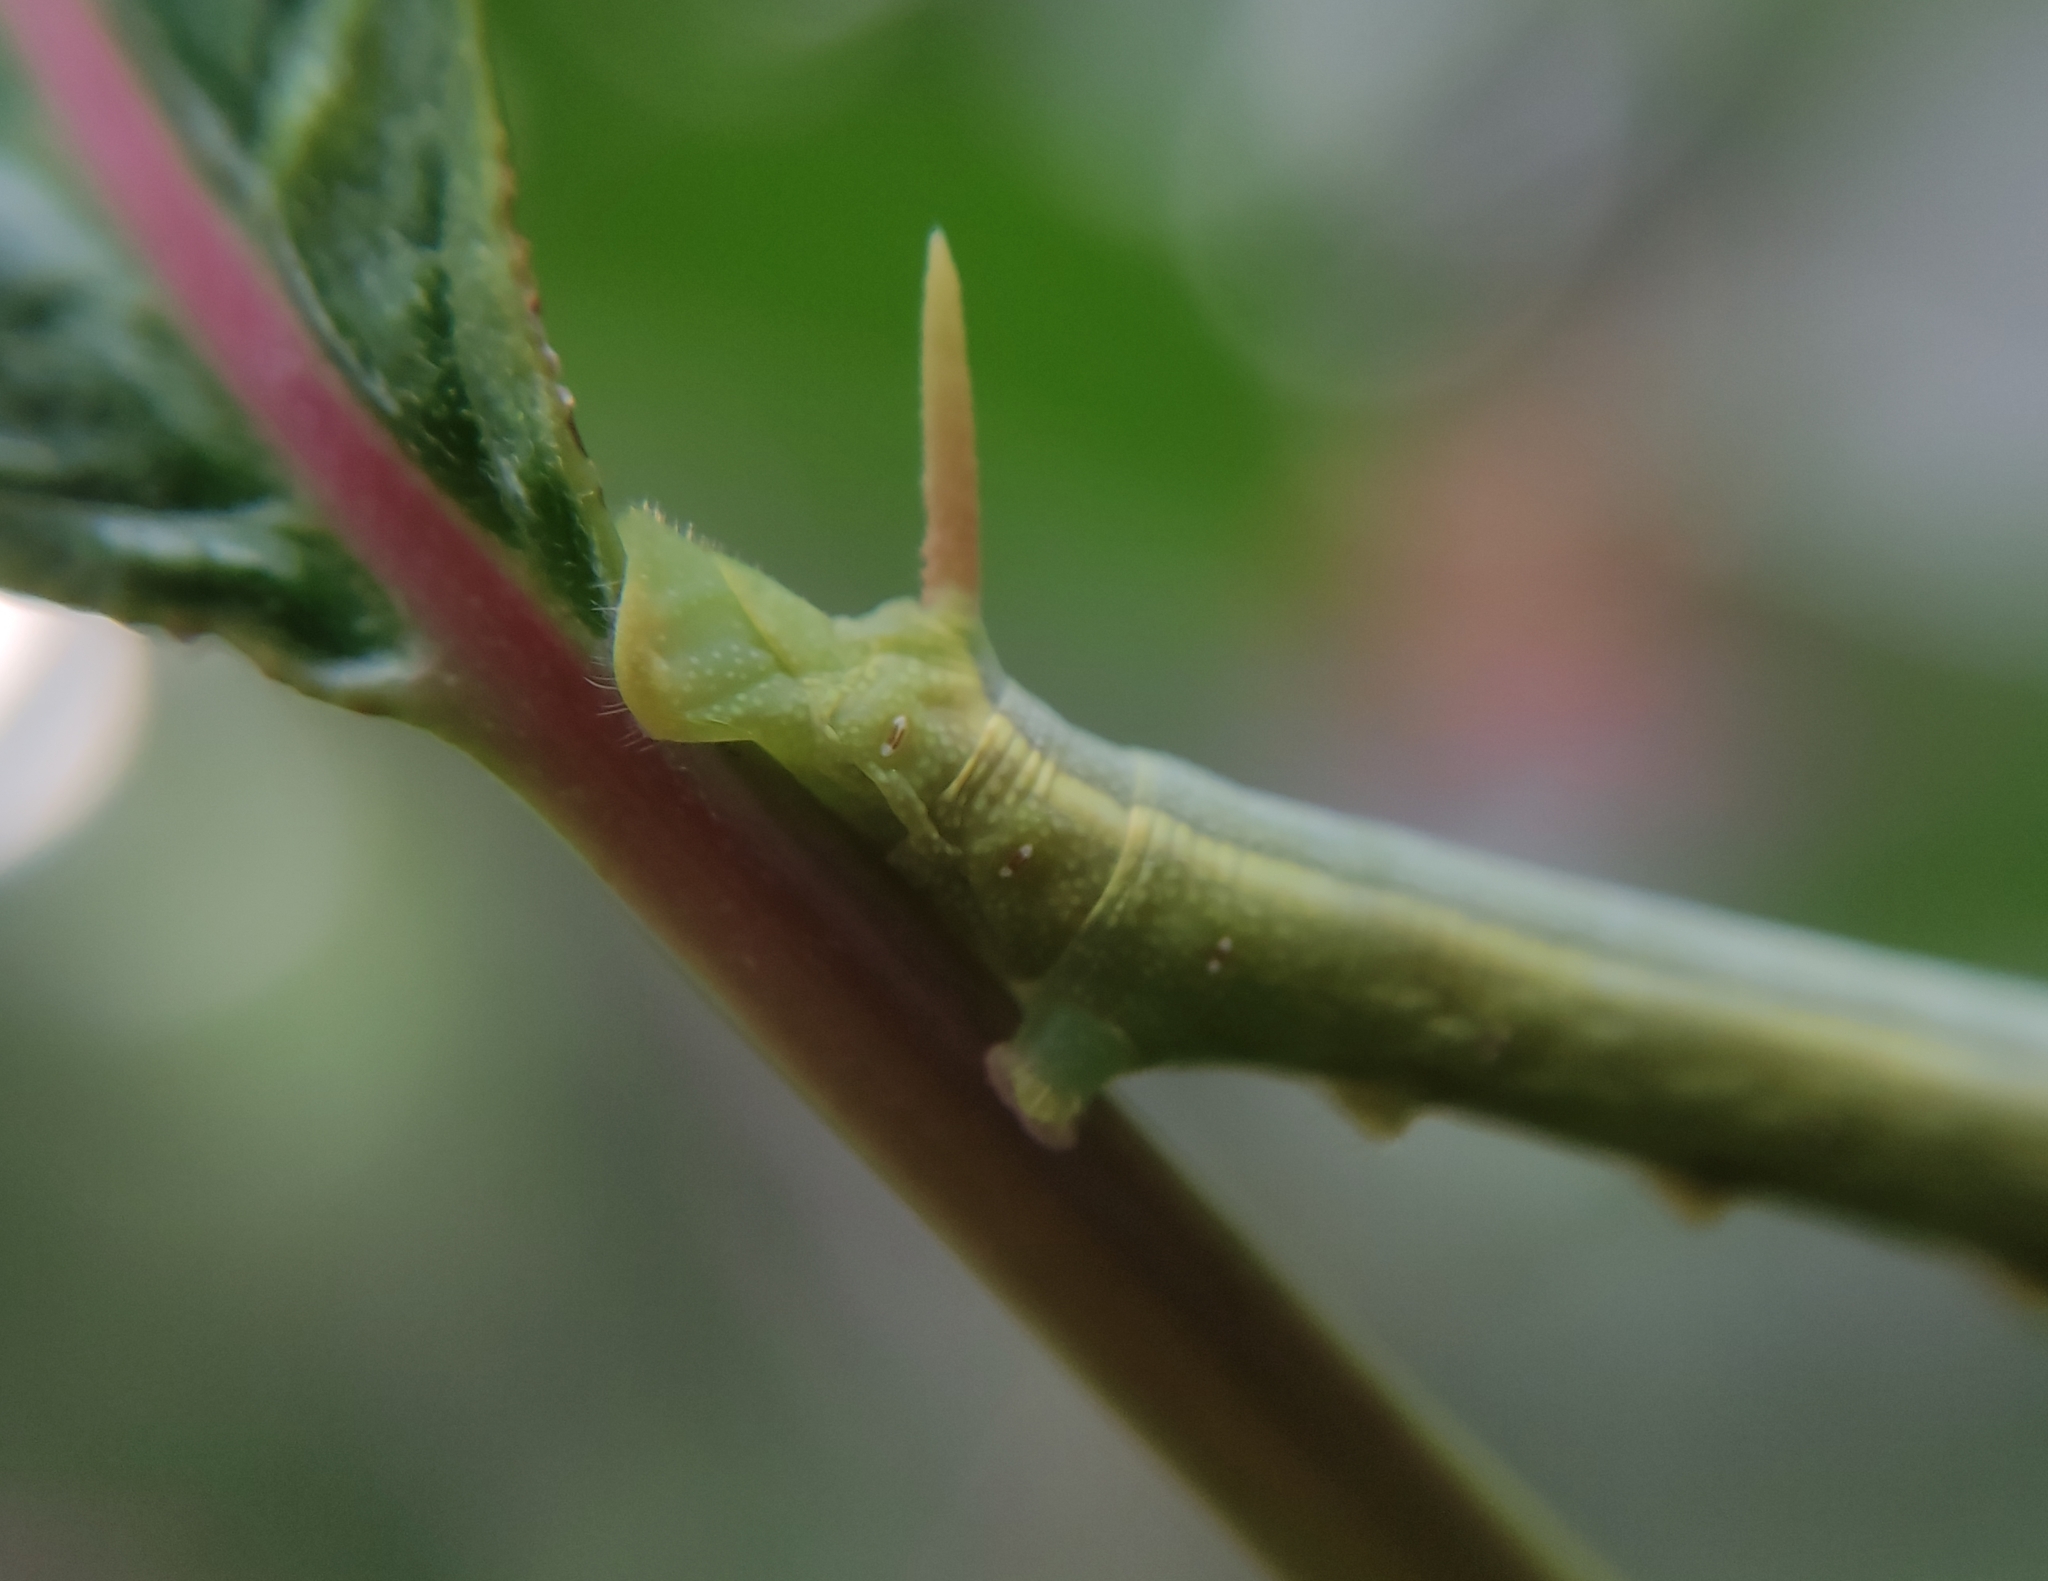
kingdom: Animalia
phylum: Arthropoda
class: Insecta
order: Lepidoptera
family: Sphingidae
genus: Erinnyis
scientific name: Erinnyis alope
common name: Alope sphinx
